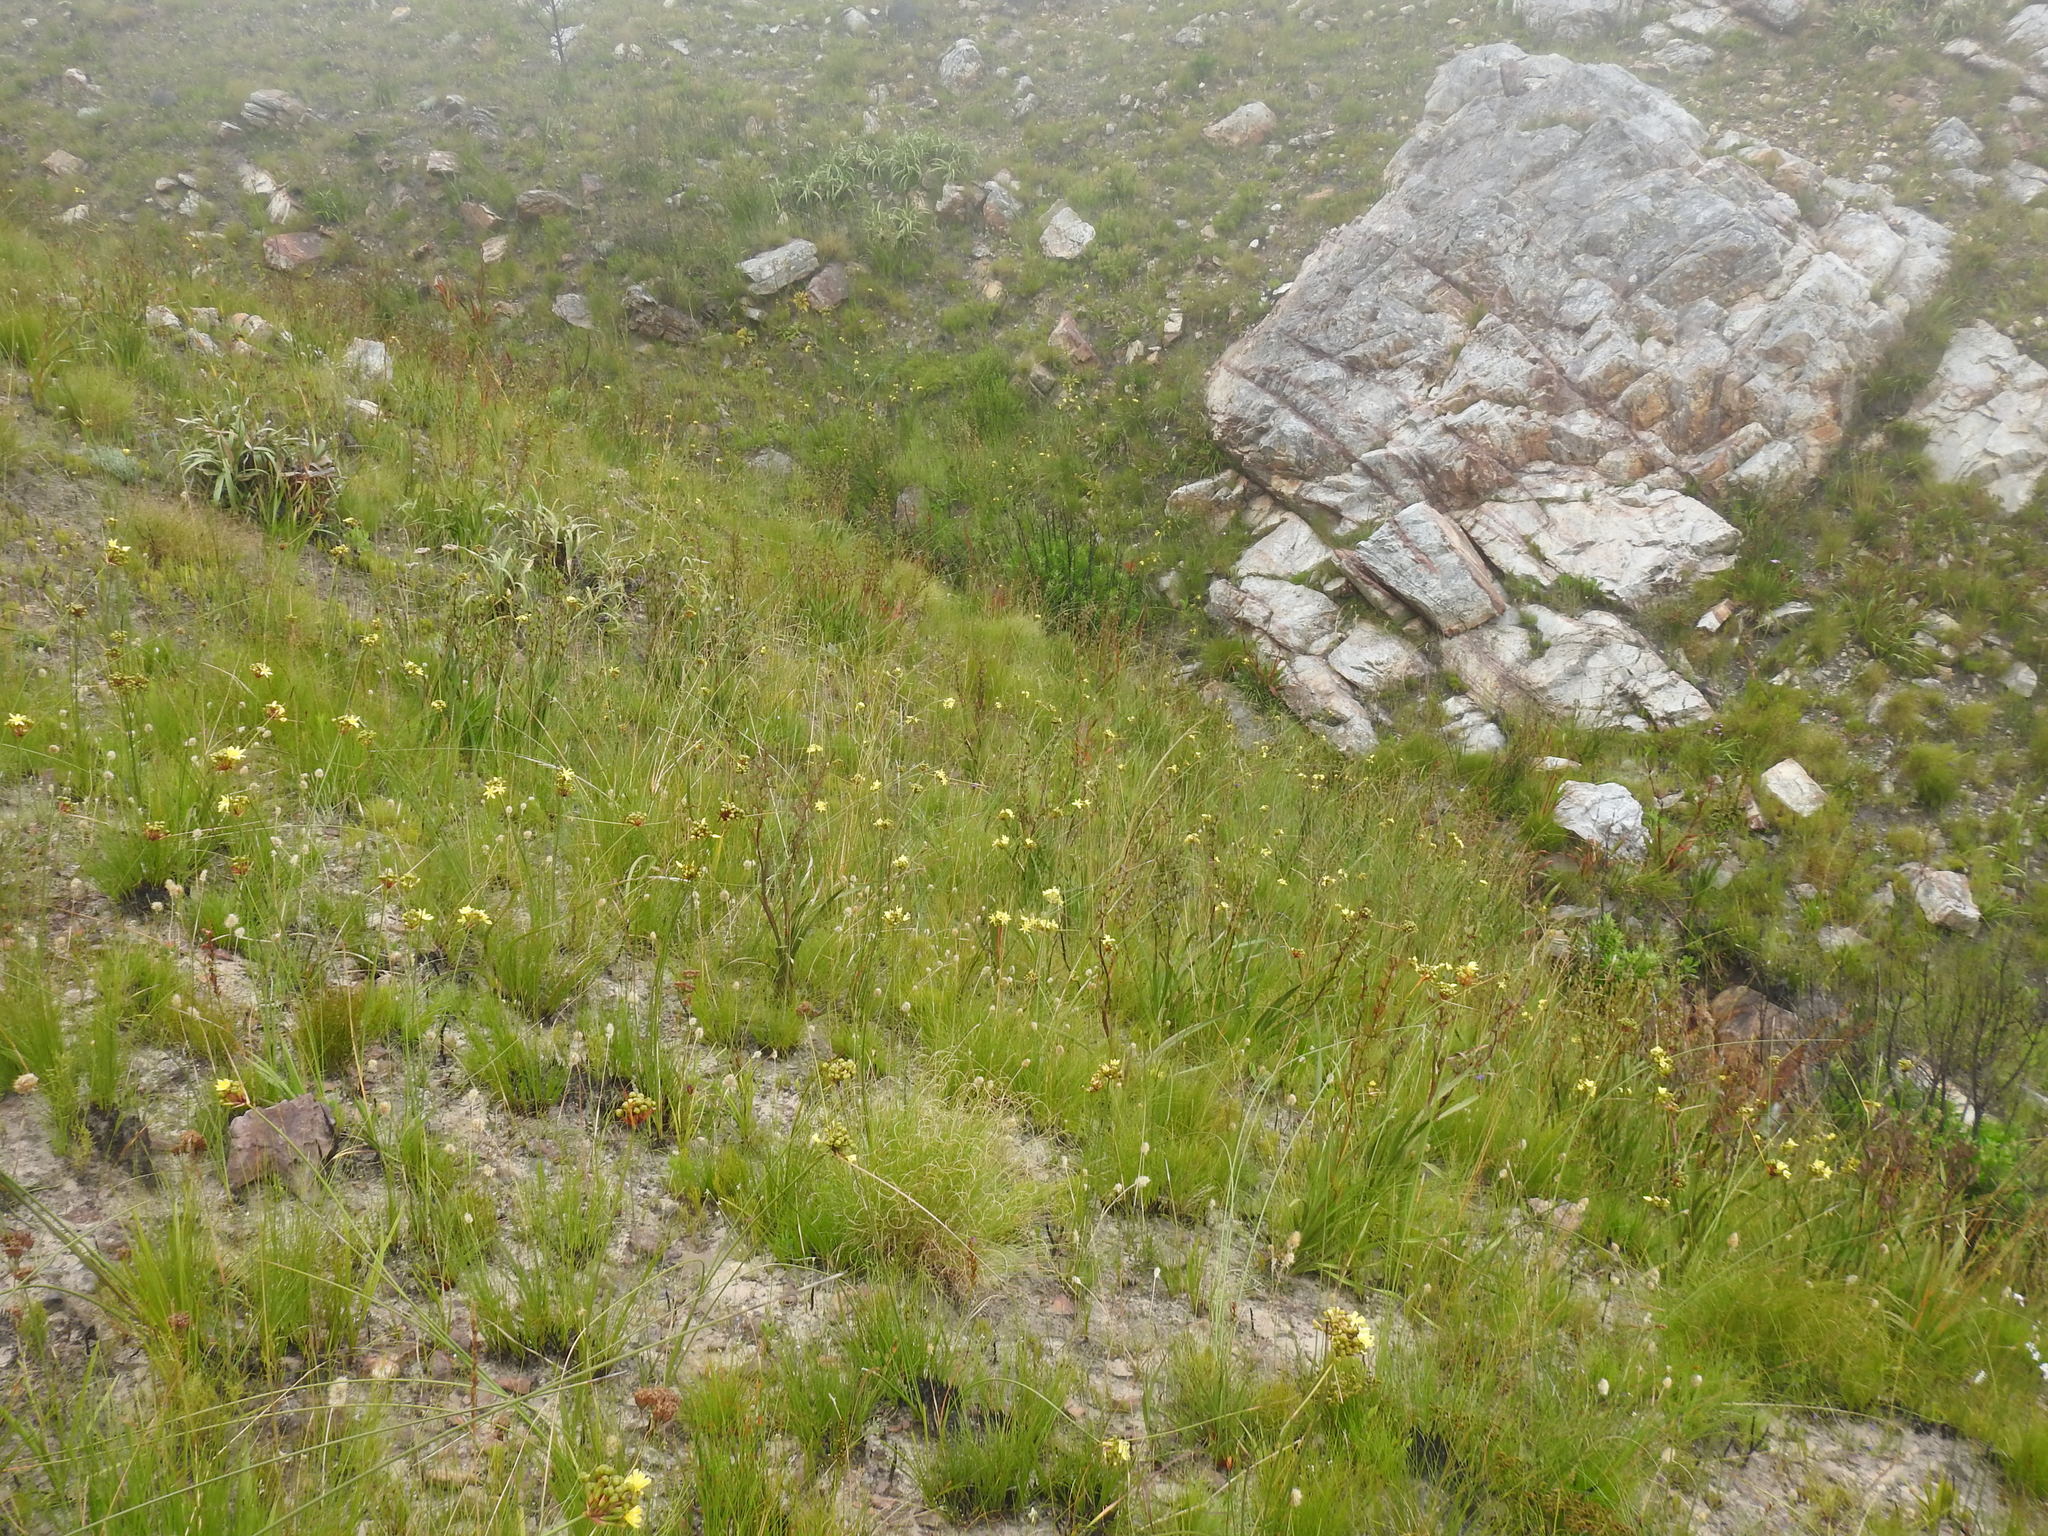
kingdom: Plantae
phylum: Tracheophyta
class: Liliopsida
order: Asparagales
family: Iridaceae
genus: Bobartia
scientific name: Bobartia indica
